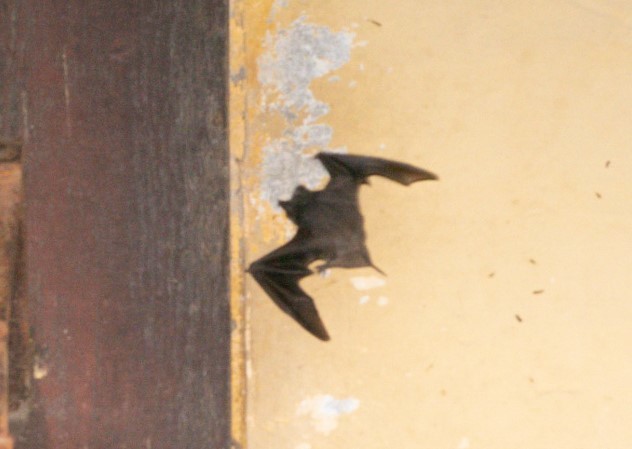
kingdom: Animalia
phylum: Chordata
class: Mammalia
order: Chiroptera
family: Molossidae
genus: Tadarida
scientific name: Tadarida brasiliensis
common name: Mexican free-tailed bat
